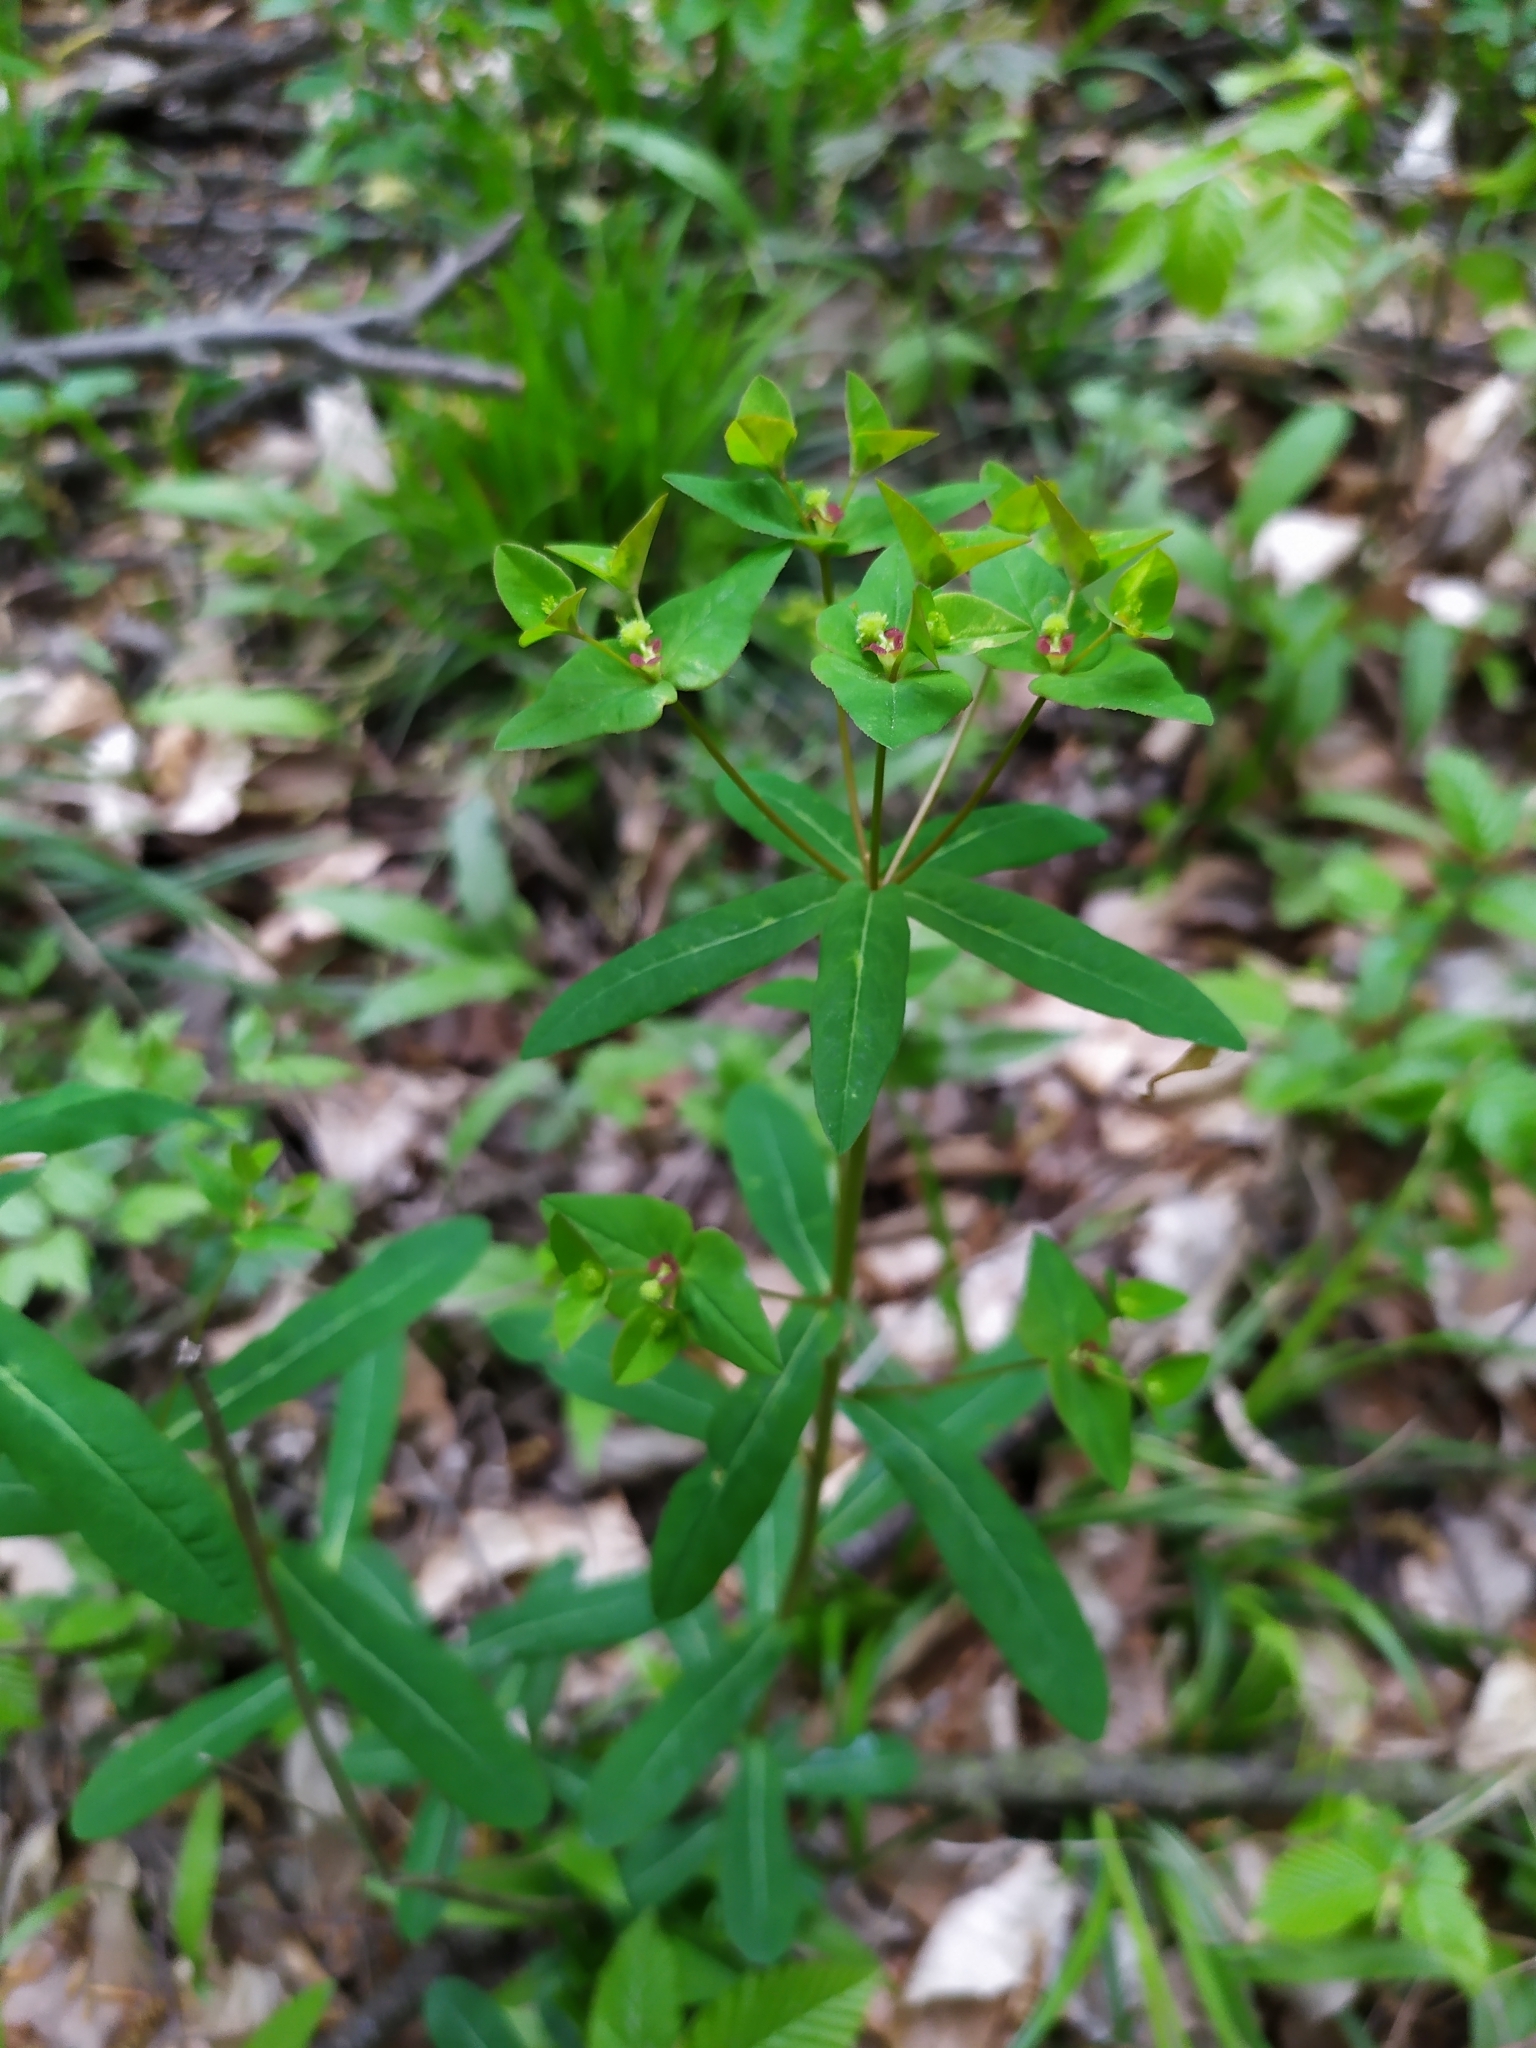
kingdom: Plantae
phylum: Tracheophyta
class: Magnoliopsida
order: Malpighiales
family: Euphorbiaceae
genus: Euphorbia
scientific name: Euphorbia dulcis
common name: Sweet spurge
